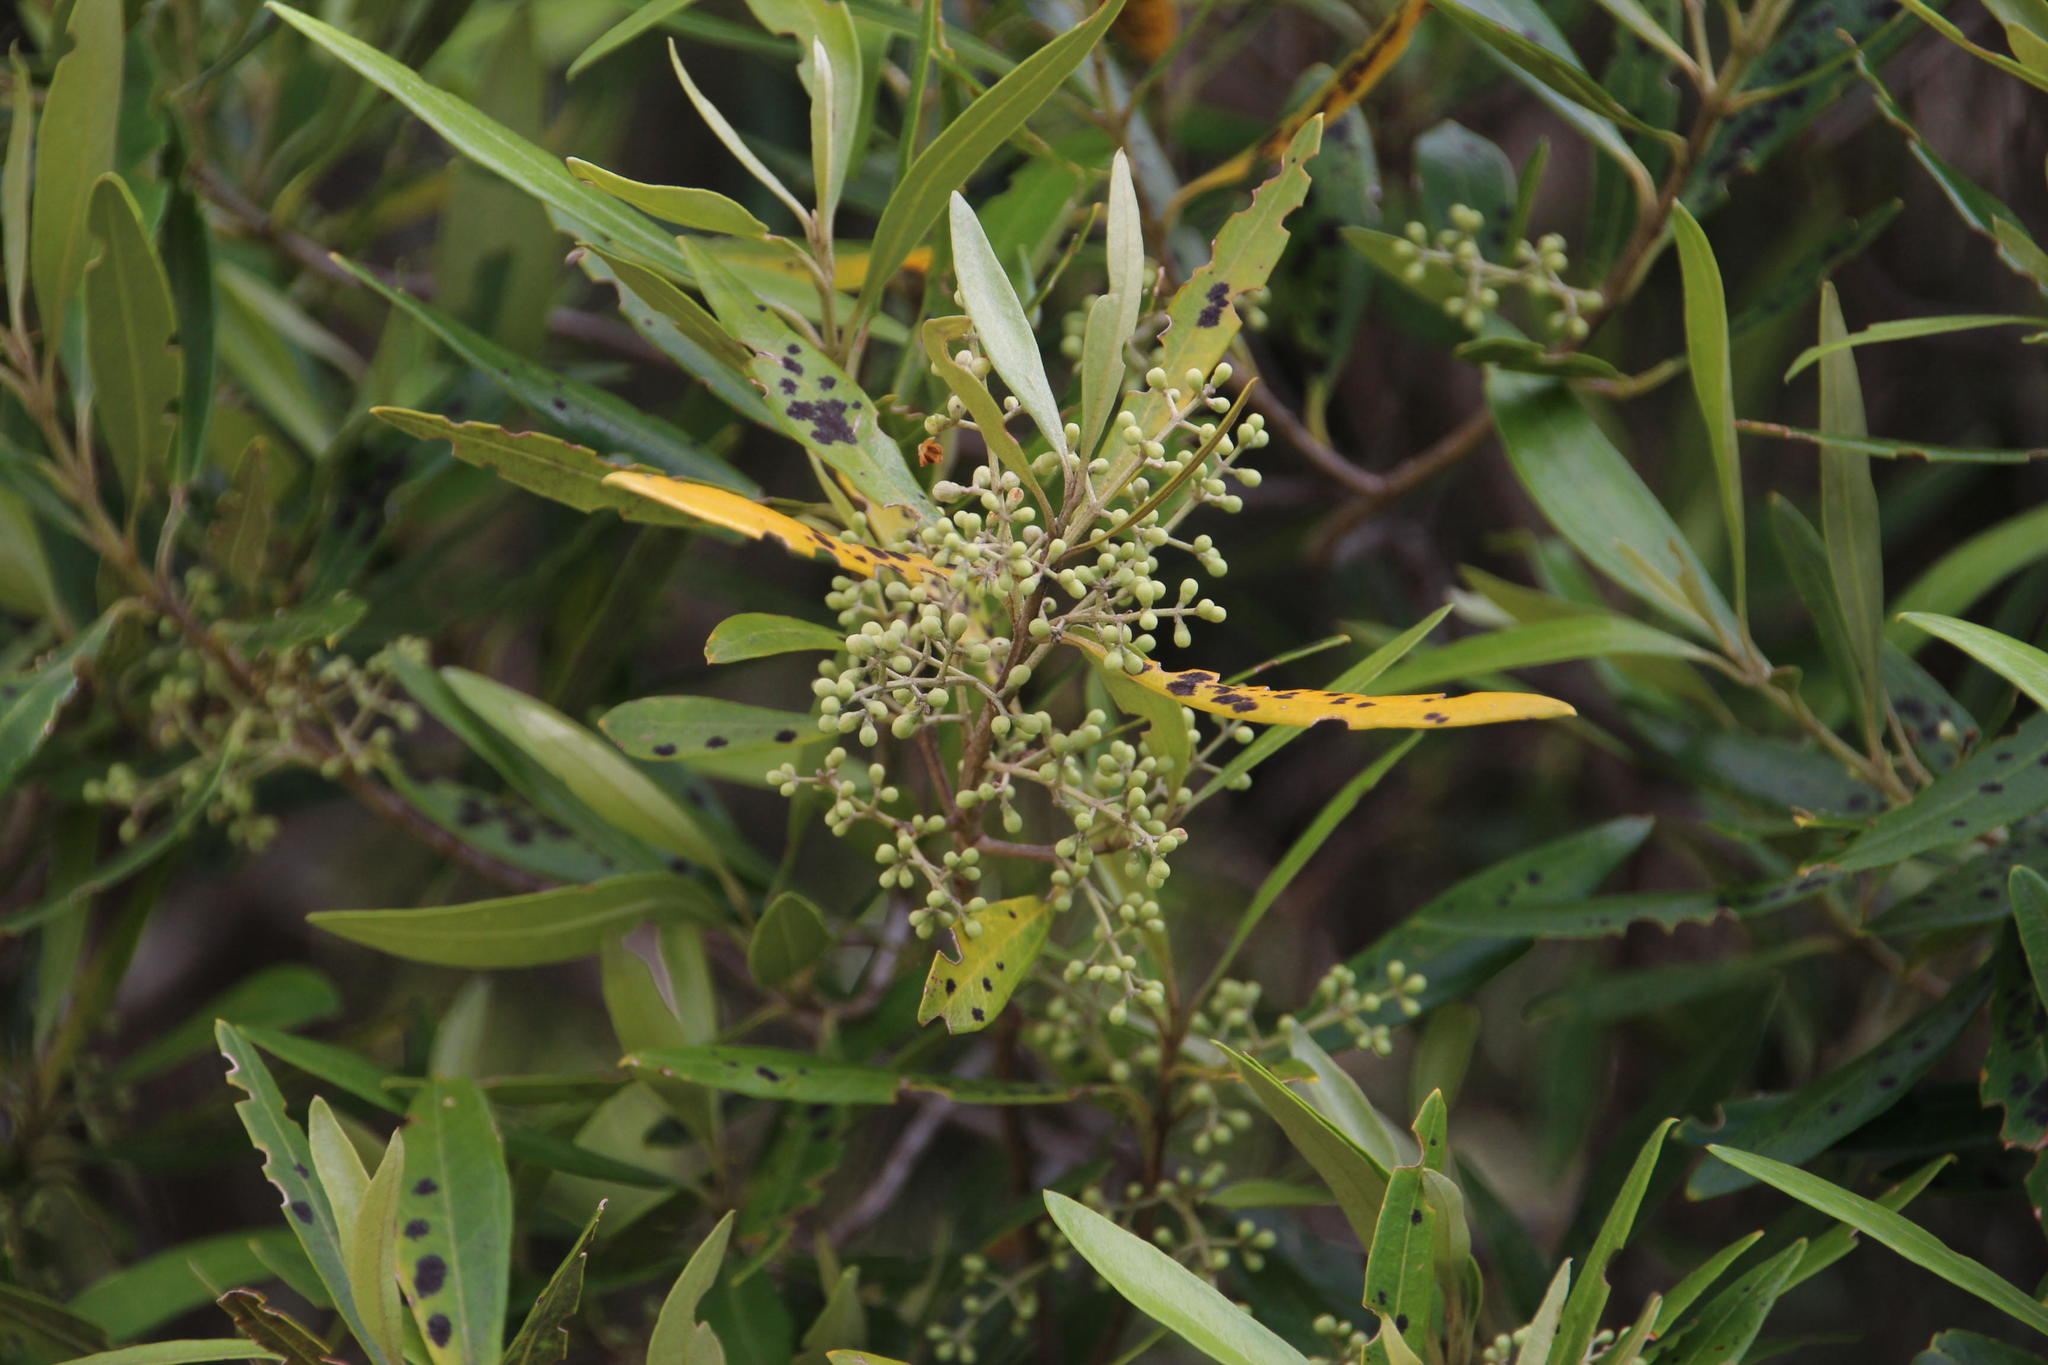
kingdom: Plantae
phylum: Tracheophyta
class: Magnoliopsida
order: Lamiales
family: Oleaceae
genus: Olea
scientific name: Olea europaea
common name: Olive
